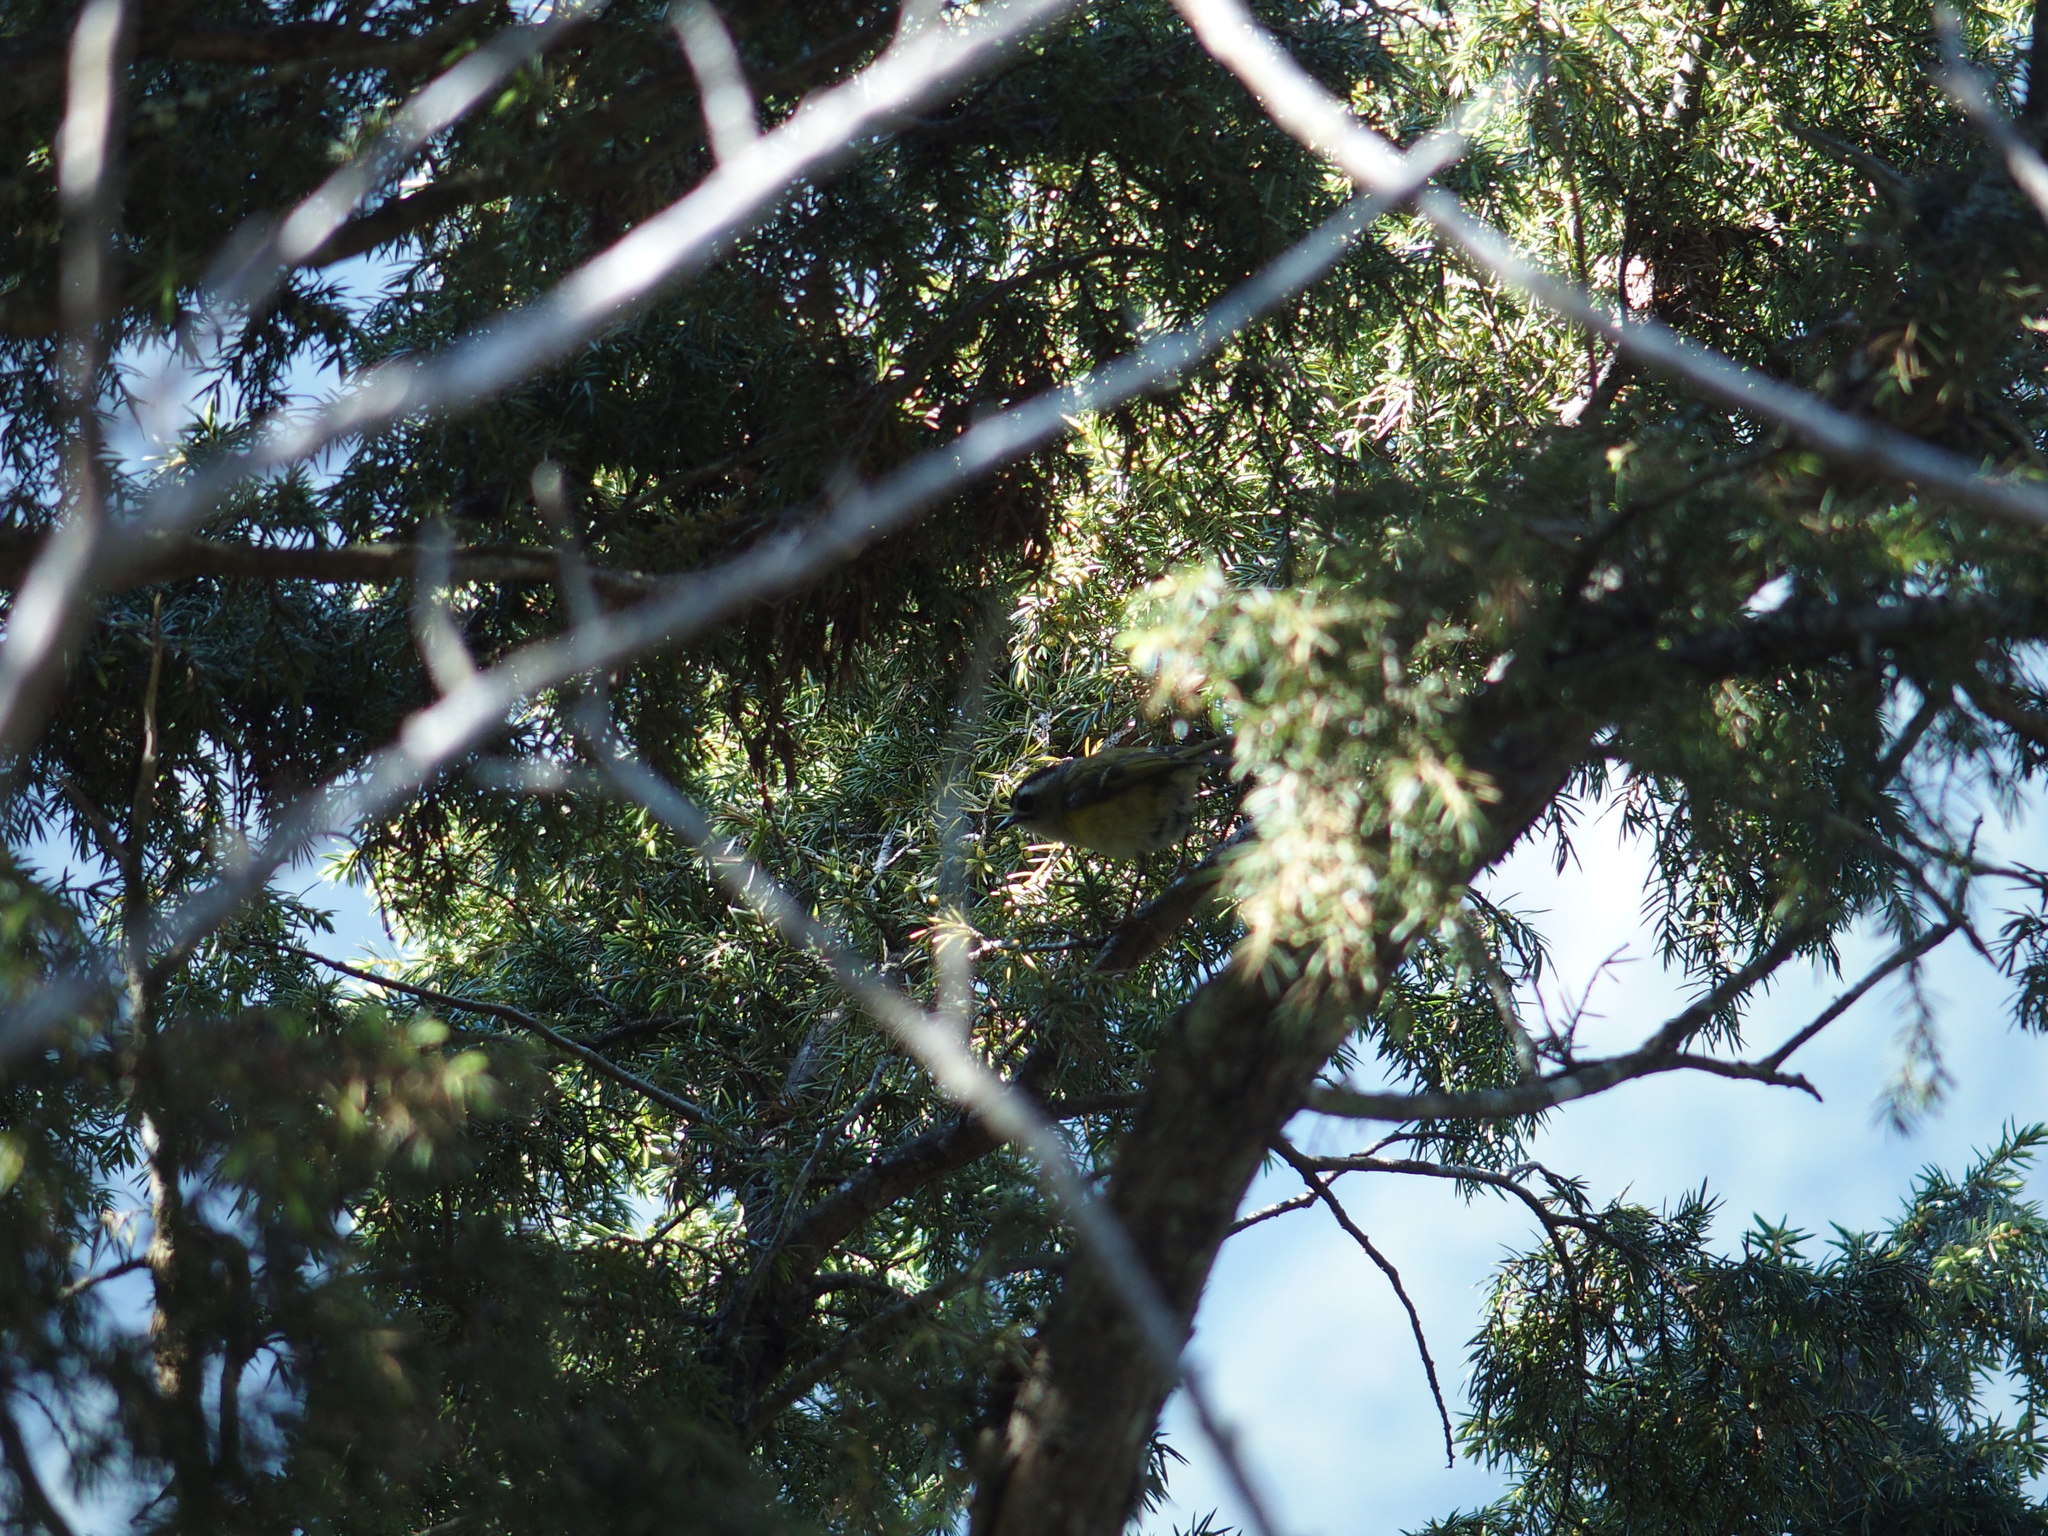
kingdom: Animalia
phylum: Chordata
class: Aves
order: Passeriformes
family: Regulidae
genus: Regulus
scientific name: Regulus goodfellowi
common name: Flamecrest
